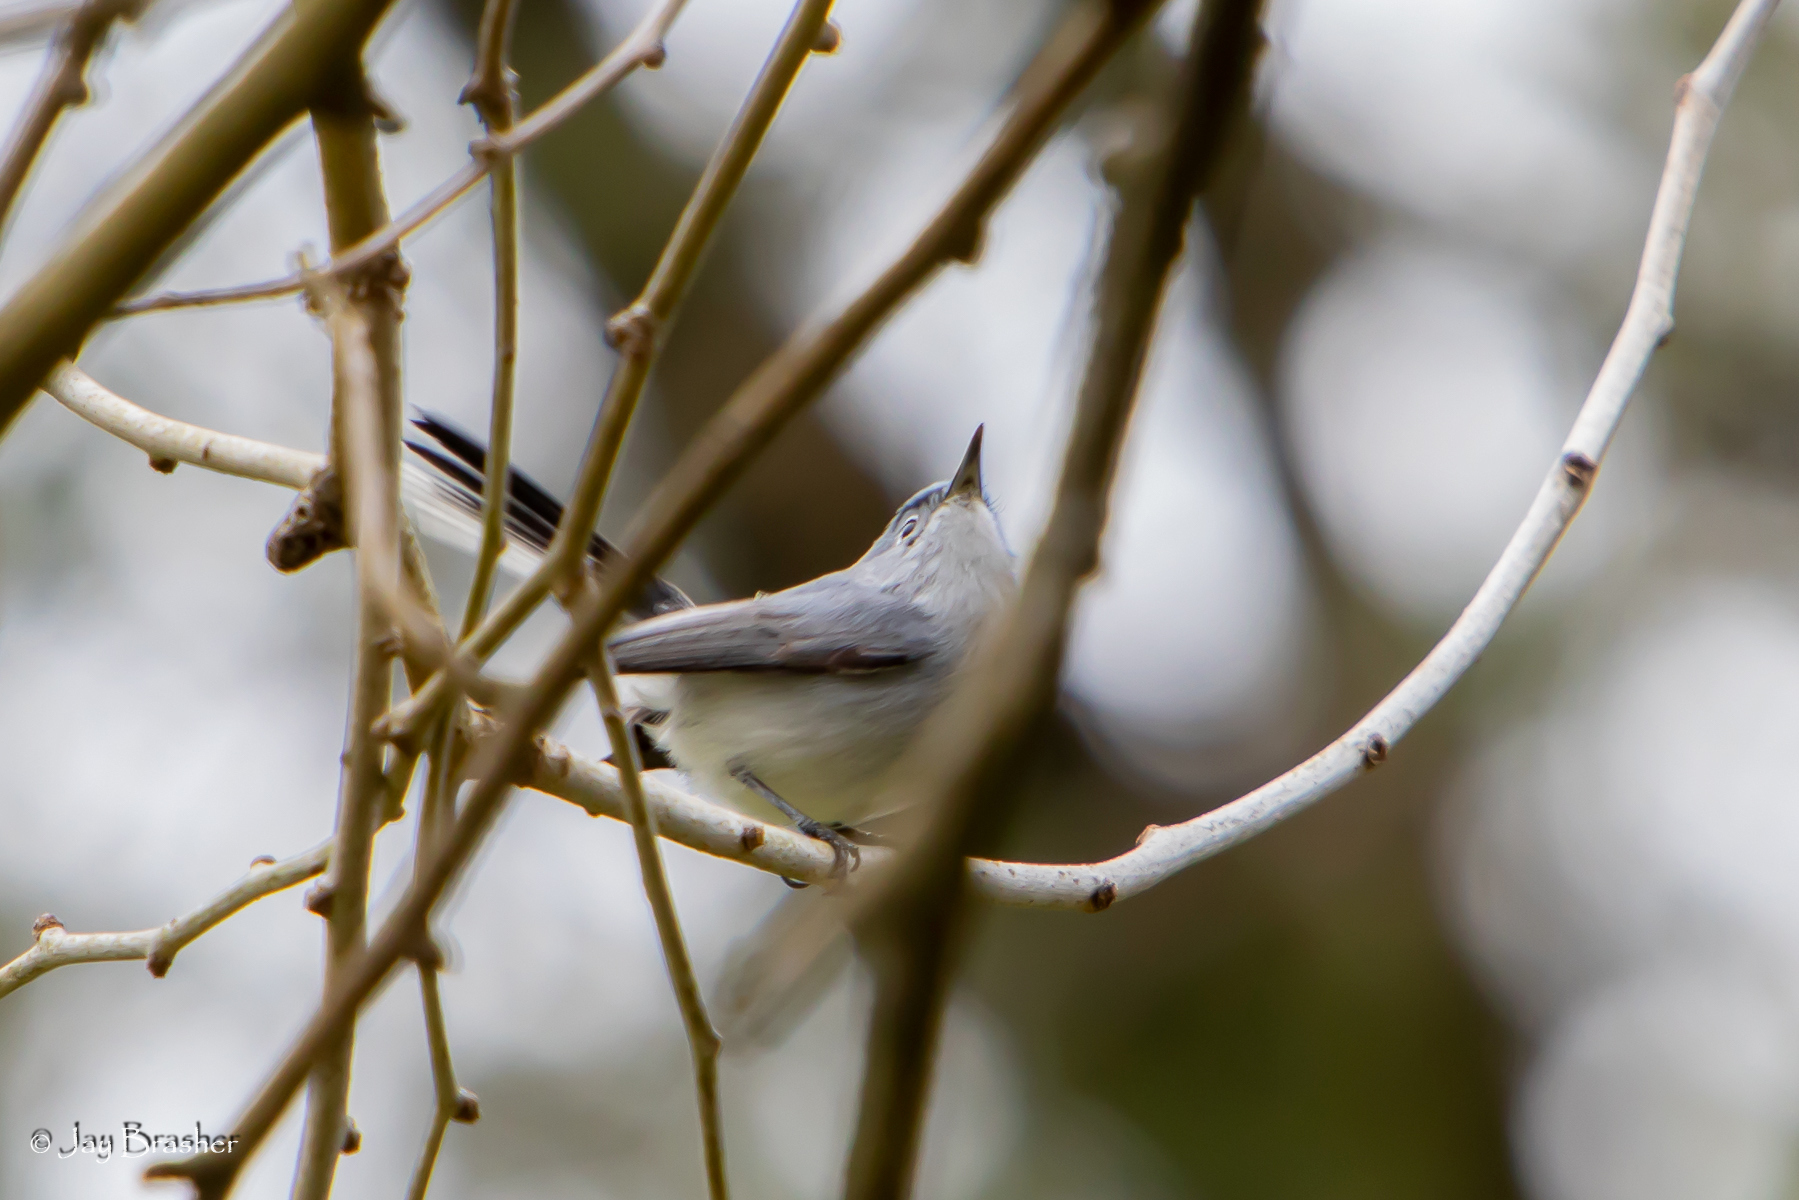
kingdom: Animalia
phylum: Chordata
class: Aves
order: Passeriformes
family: Polioptilidae
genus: Polioptila
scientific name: Polioptila caerulea
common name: Blue-gray gnatcatcher
